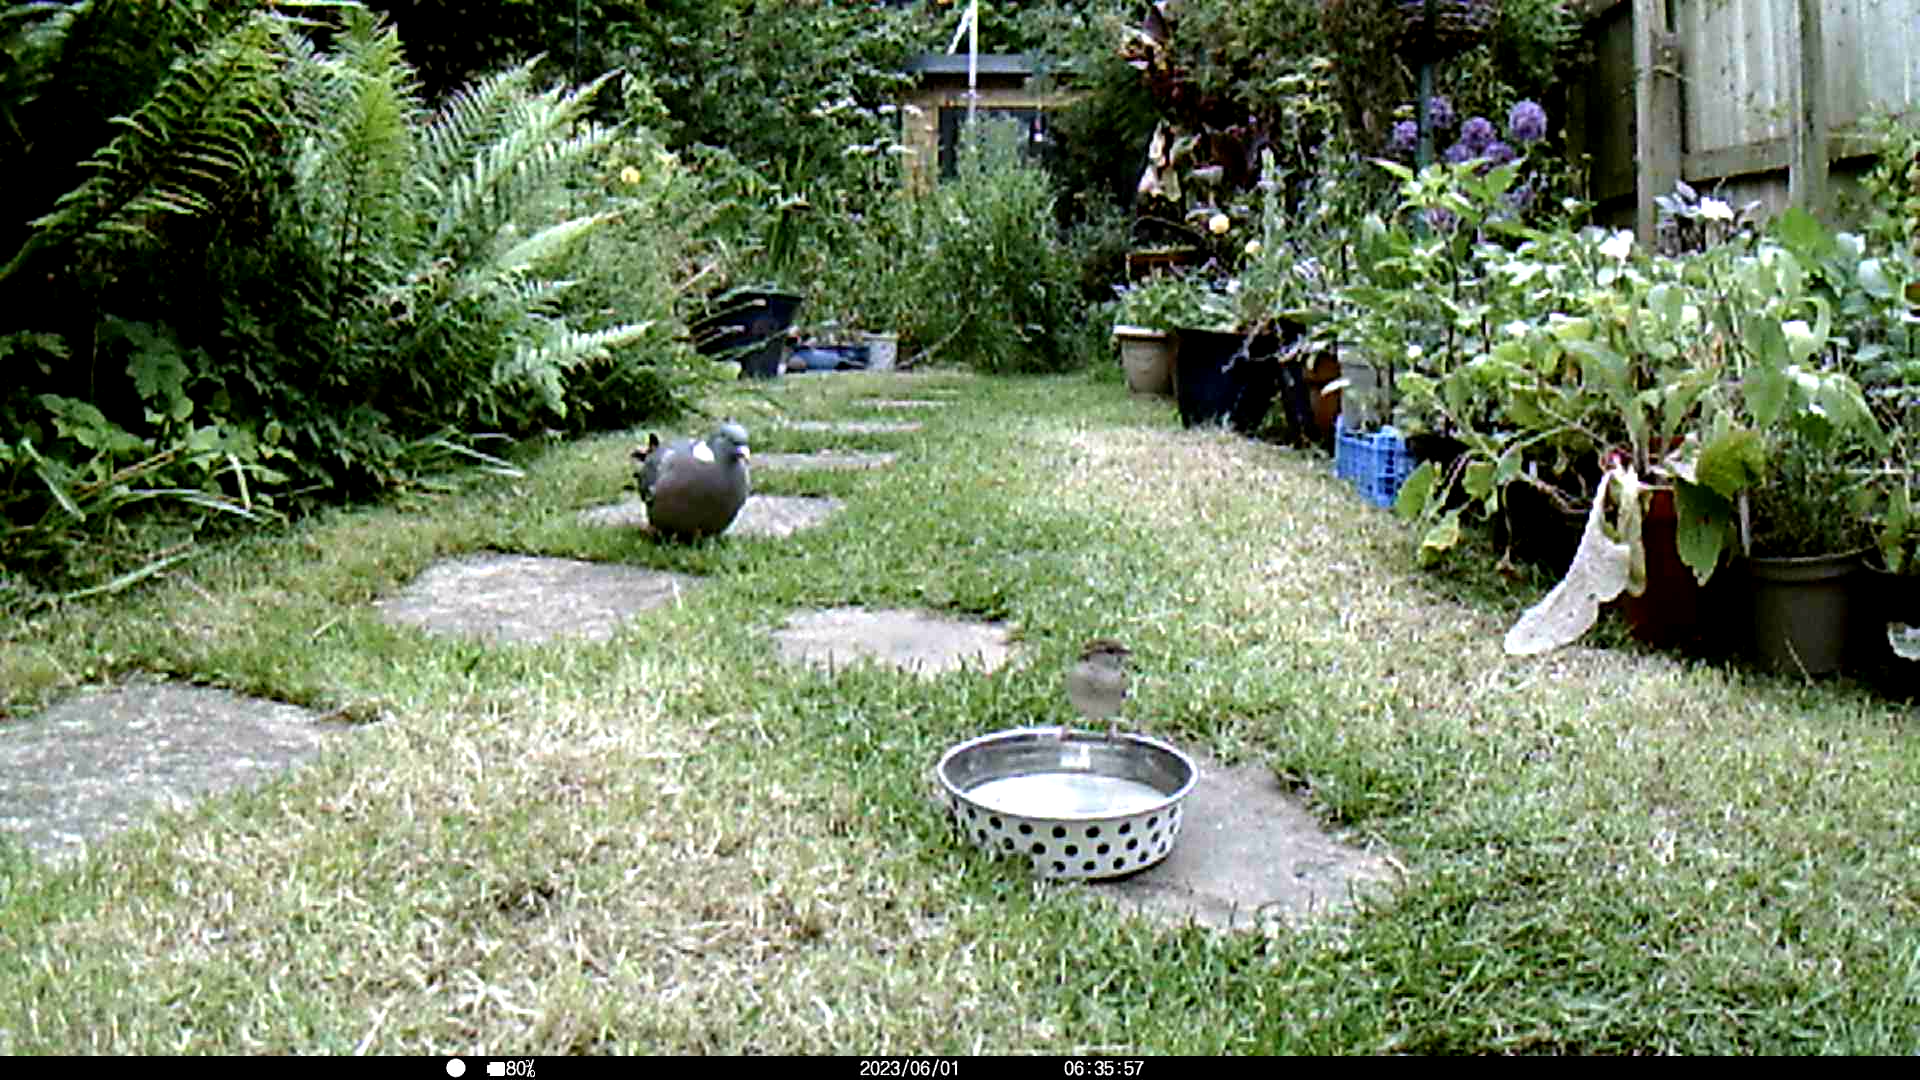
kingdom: Animalia
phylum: Chordata
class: Aves
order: Passeriformes
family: Passeridae
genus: Passer
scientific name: Passer domesticus
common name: House sparrow
